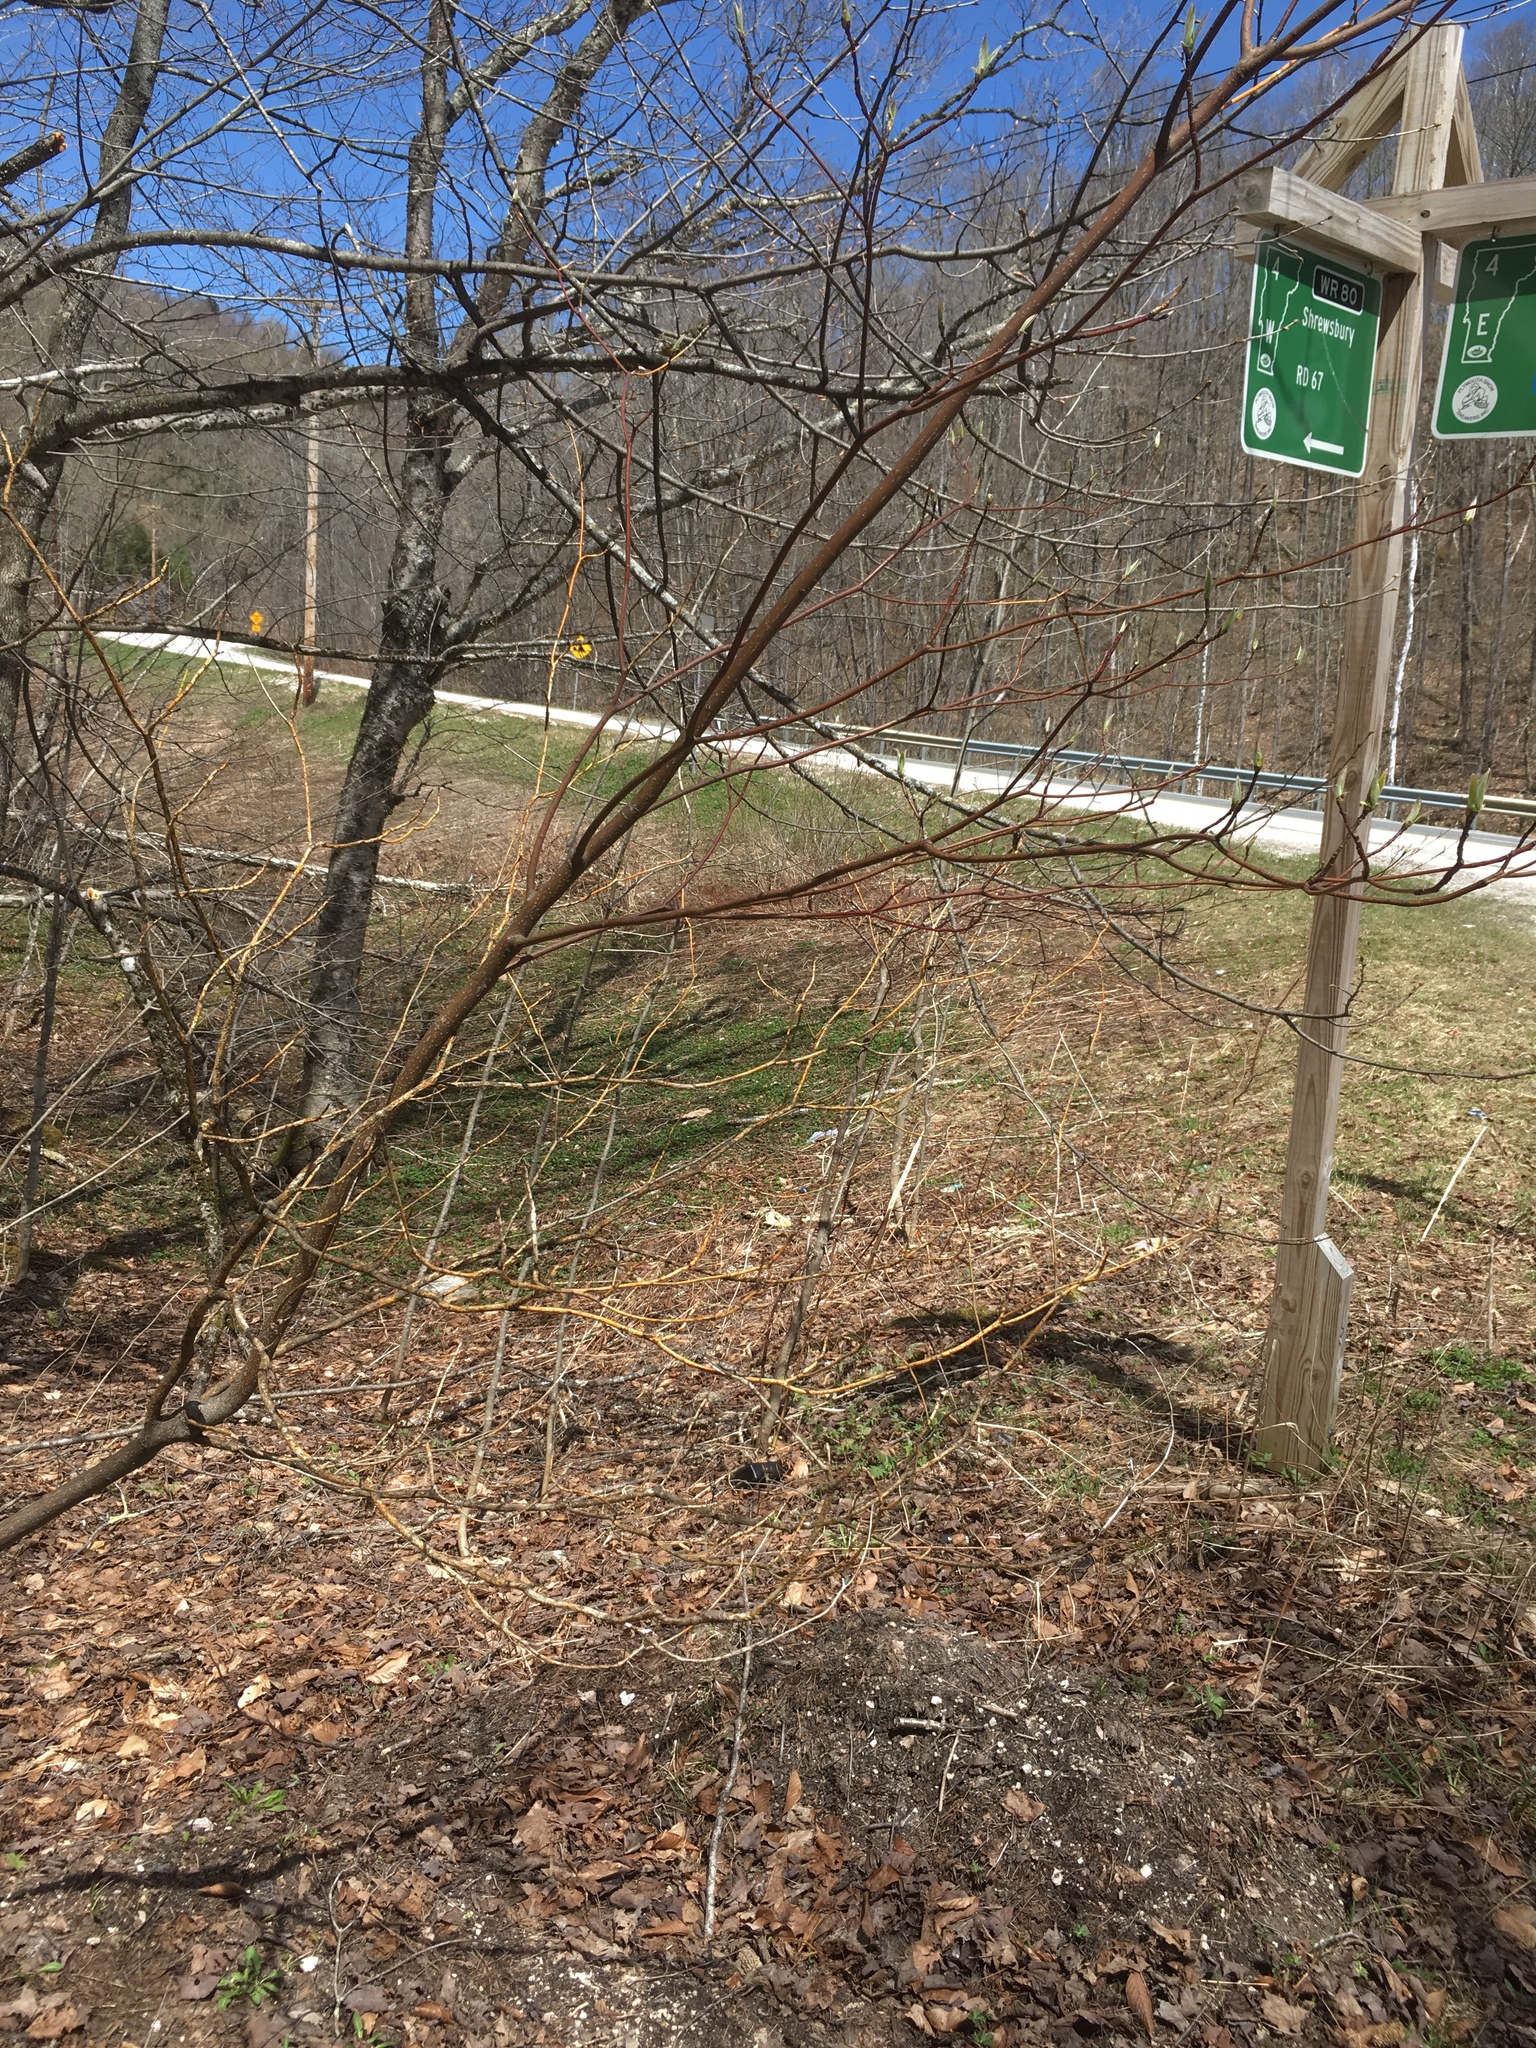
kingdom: Plantae
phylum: Tracheophyta
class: Magnoliopsida
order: Cornales
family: Cornaceae
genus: Cornus
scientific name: Cornus alternifolia
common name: Pagoda dogwood
